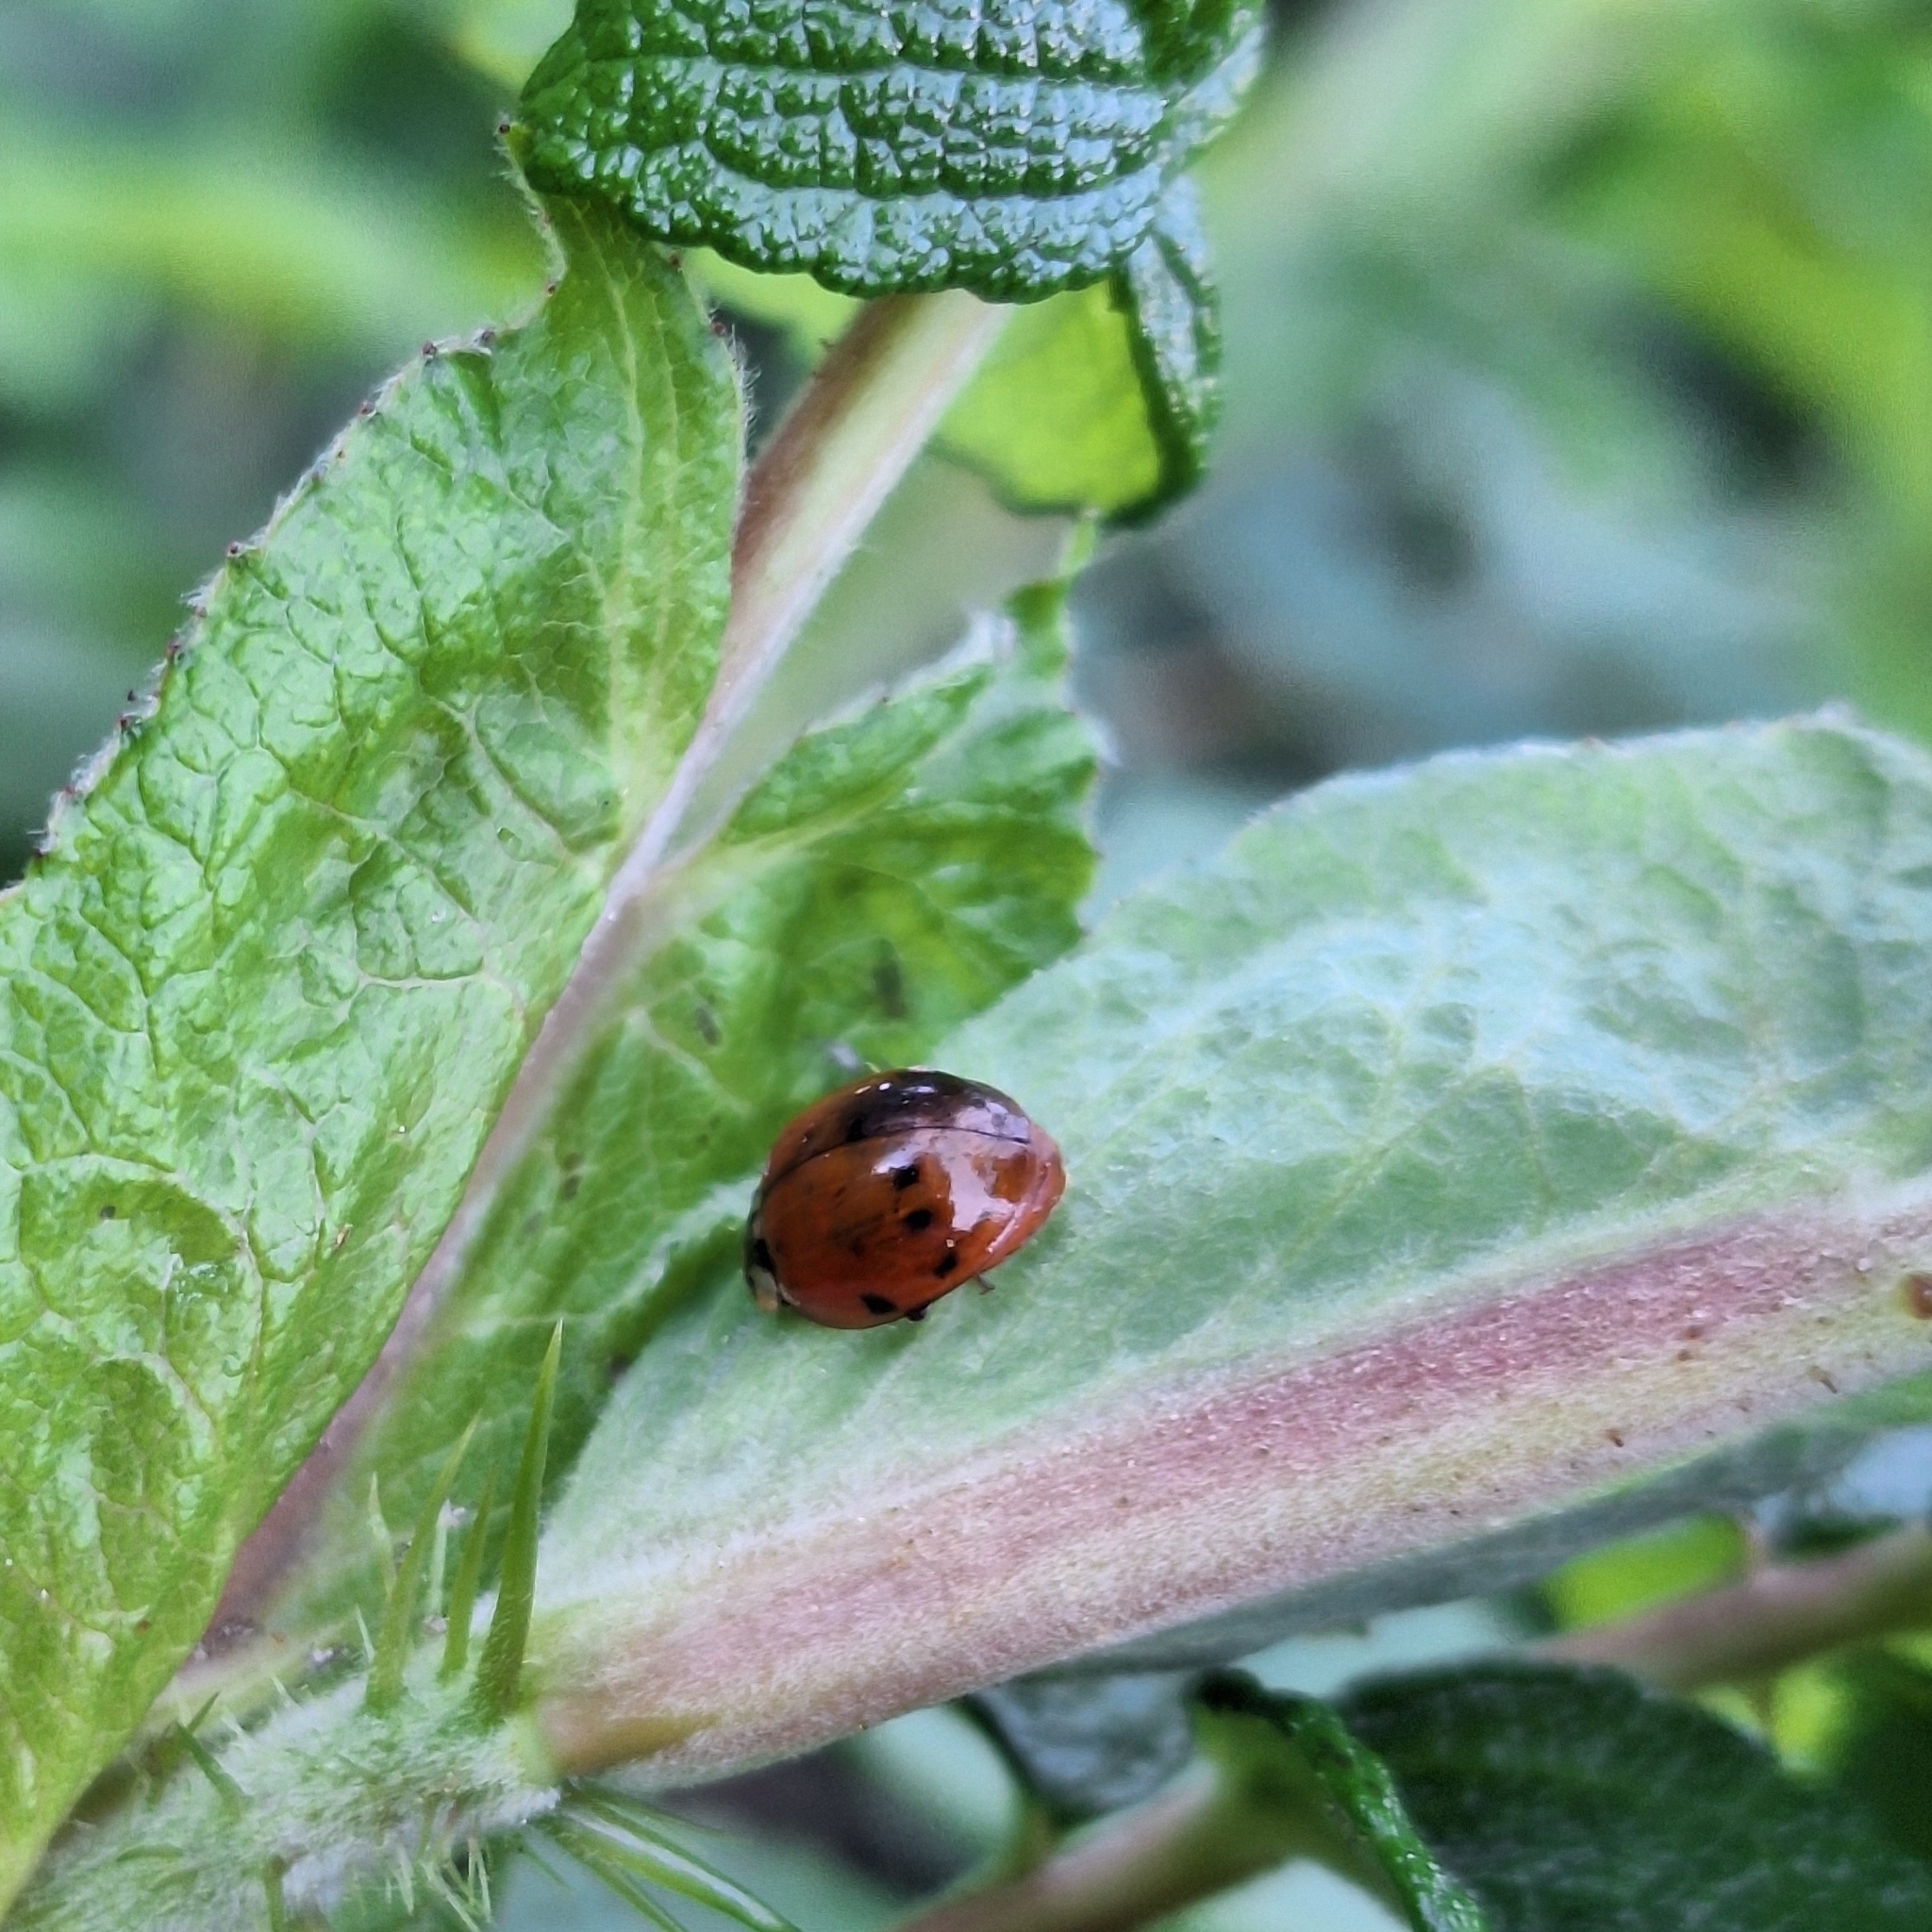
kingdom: Animalia
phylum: Arthropoda
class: Insecta
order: Coleoptera
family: Coccinellidae
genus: Harmonia
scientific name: Harmonia axyridis
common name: Harlequin ladybird
